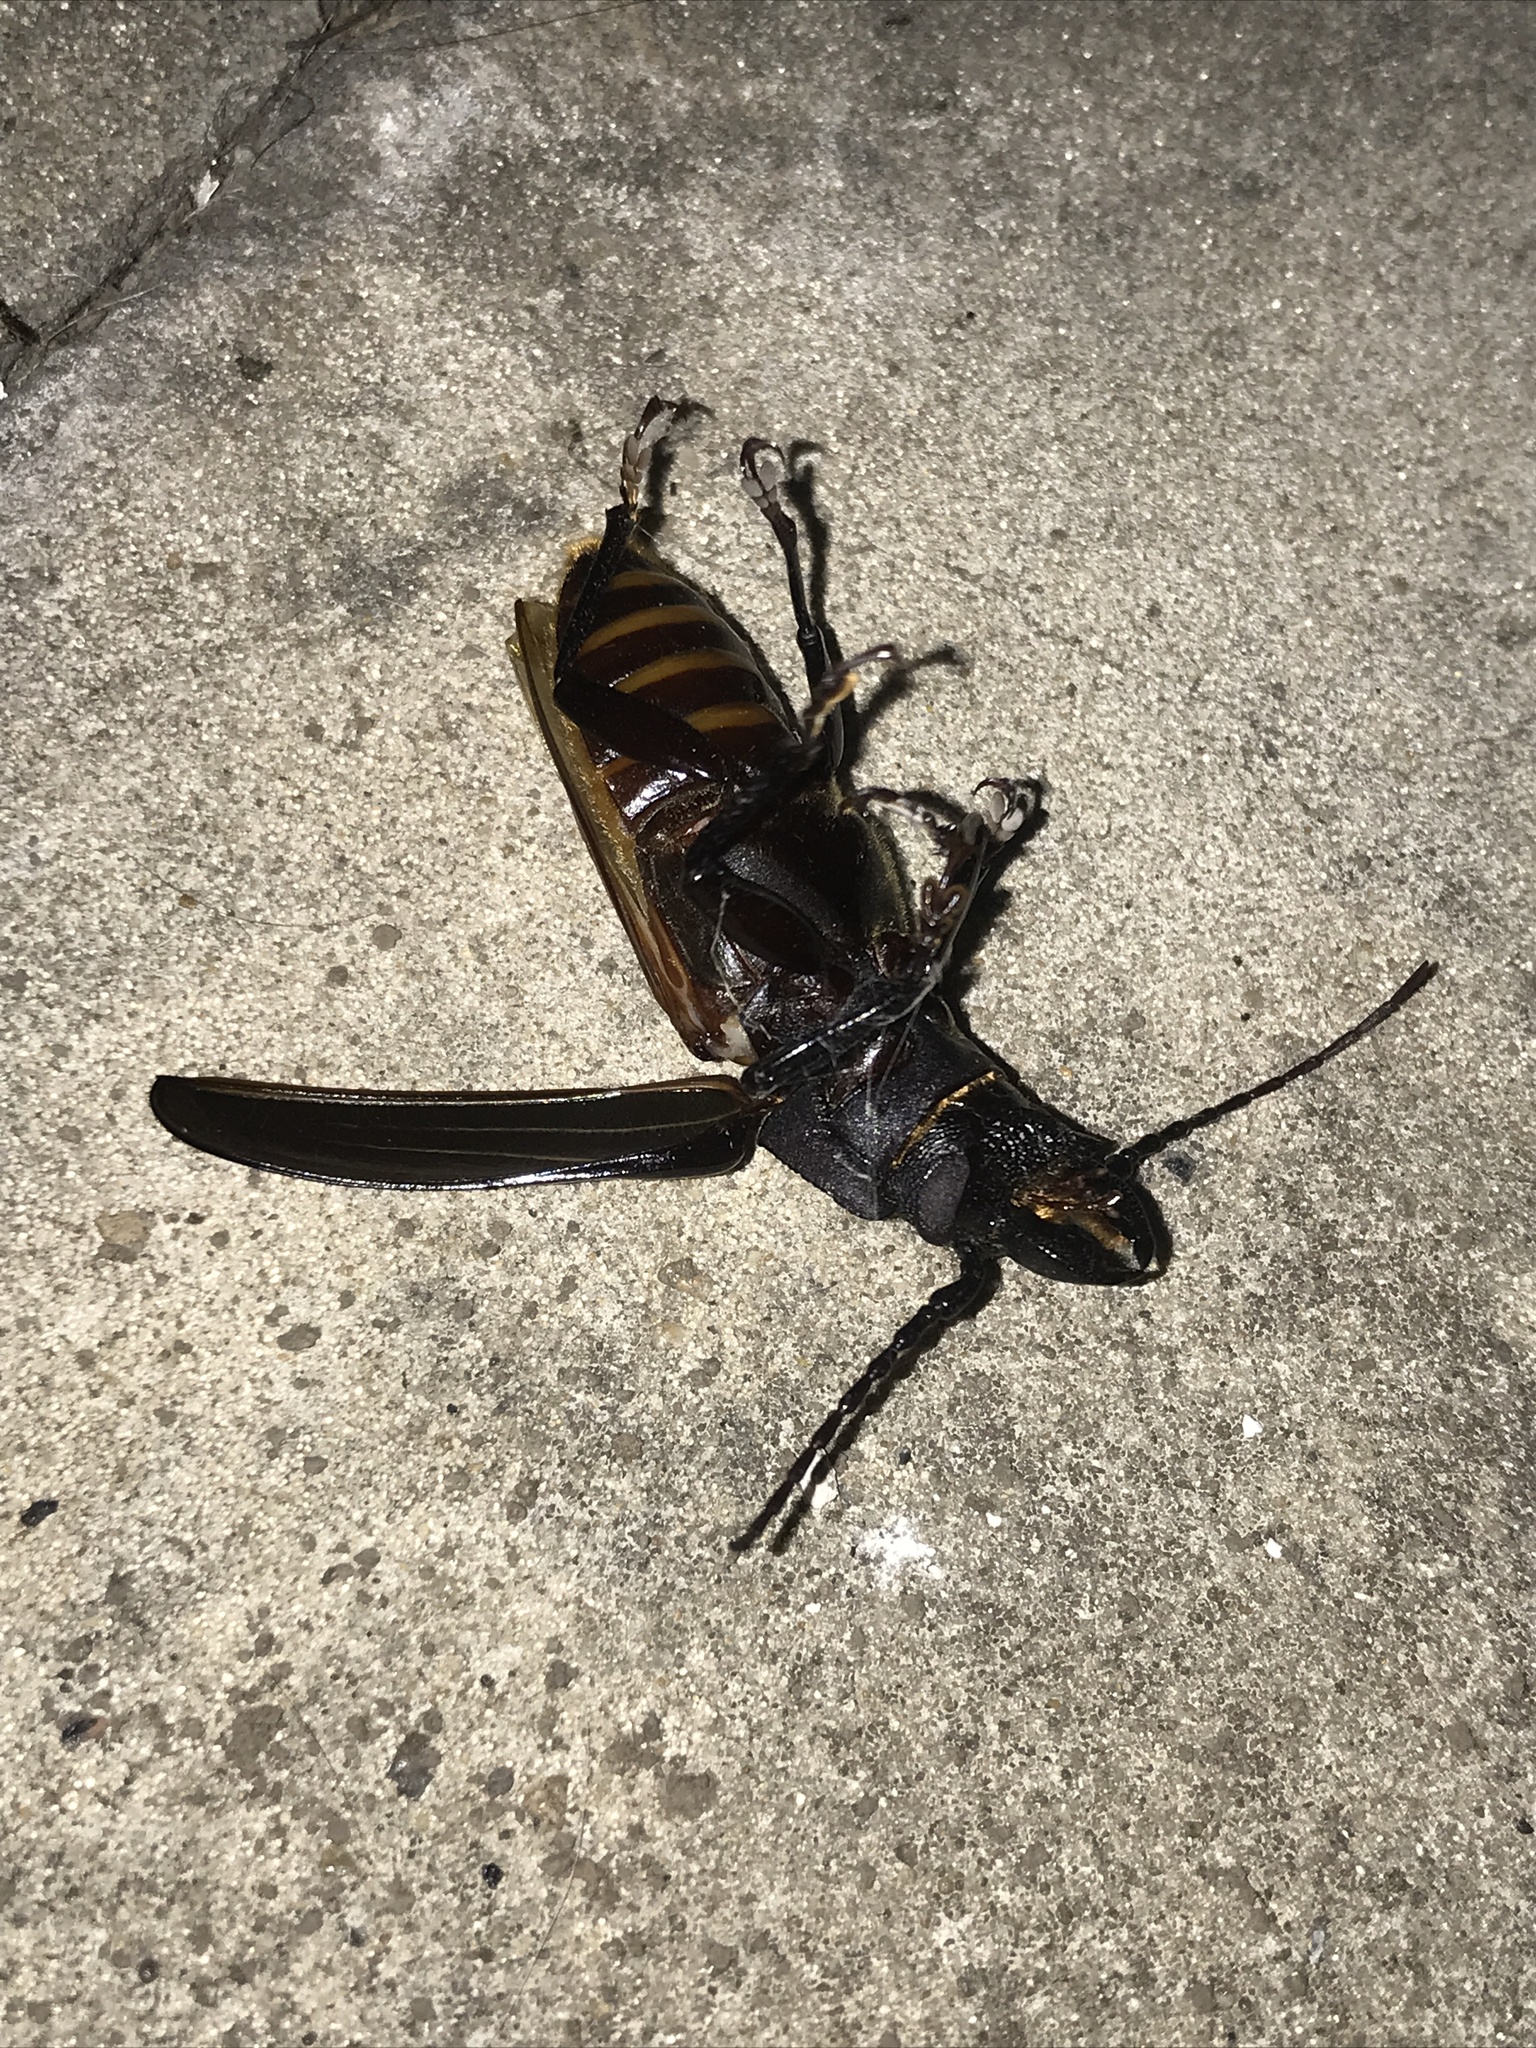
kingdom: Animalia
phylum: Arthropoda
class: Insecta
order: Coleoptera
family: Cerambycidae
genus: Mallodon
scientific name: Mallodon dasystomum
